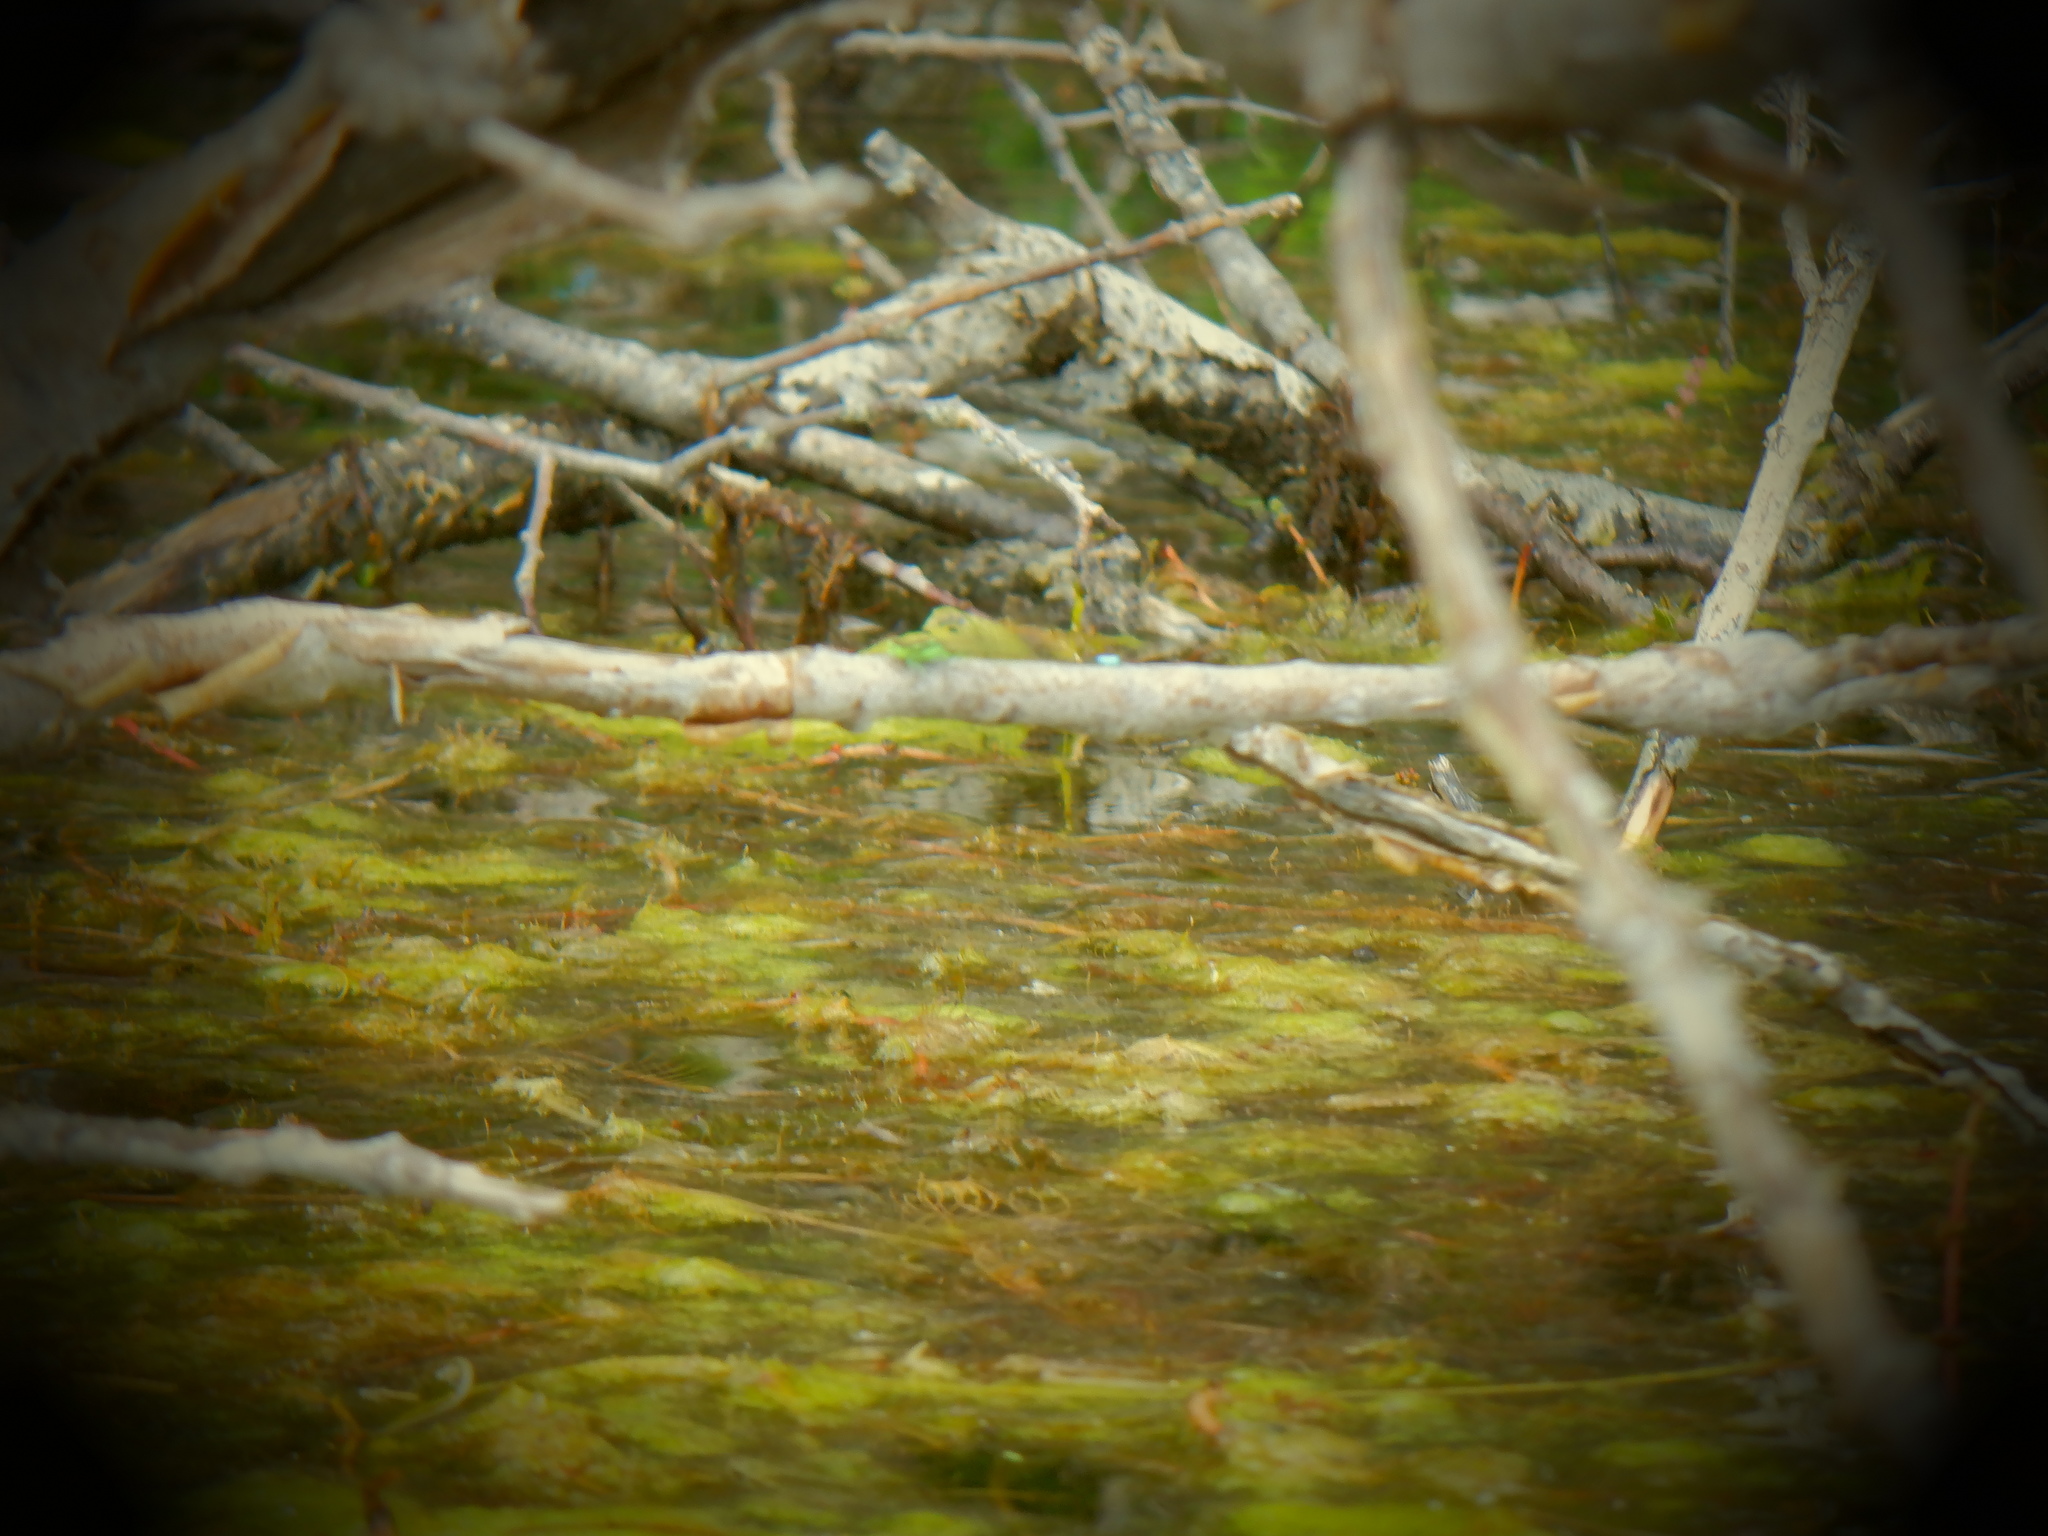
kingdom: Animalia
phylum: Arthropoda
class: Insecta
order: Odonata
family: Coenagrionidae
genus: Ischnura
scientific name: Ischnura verticalis
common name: Eastern forktail
